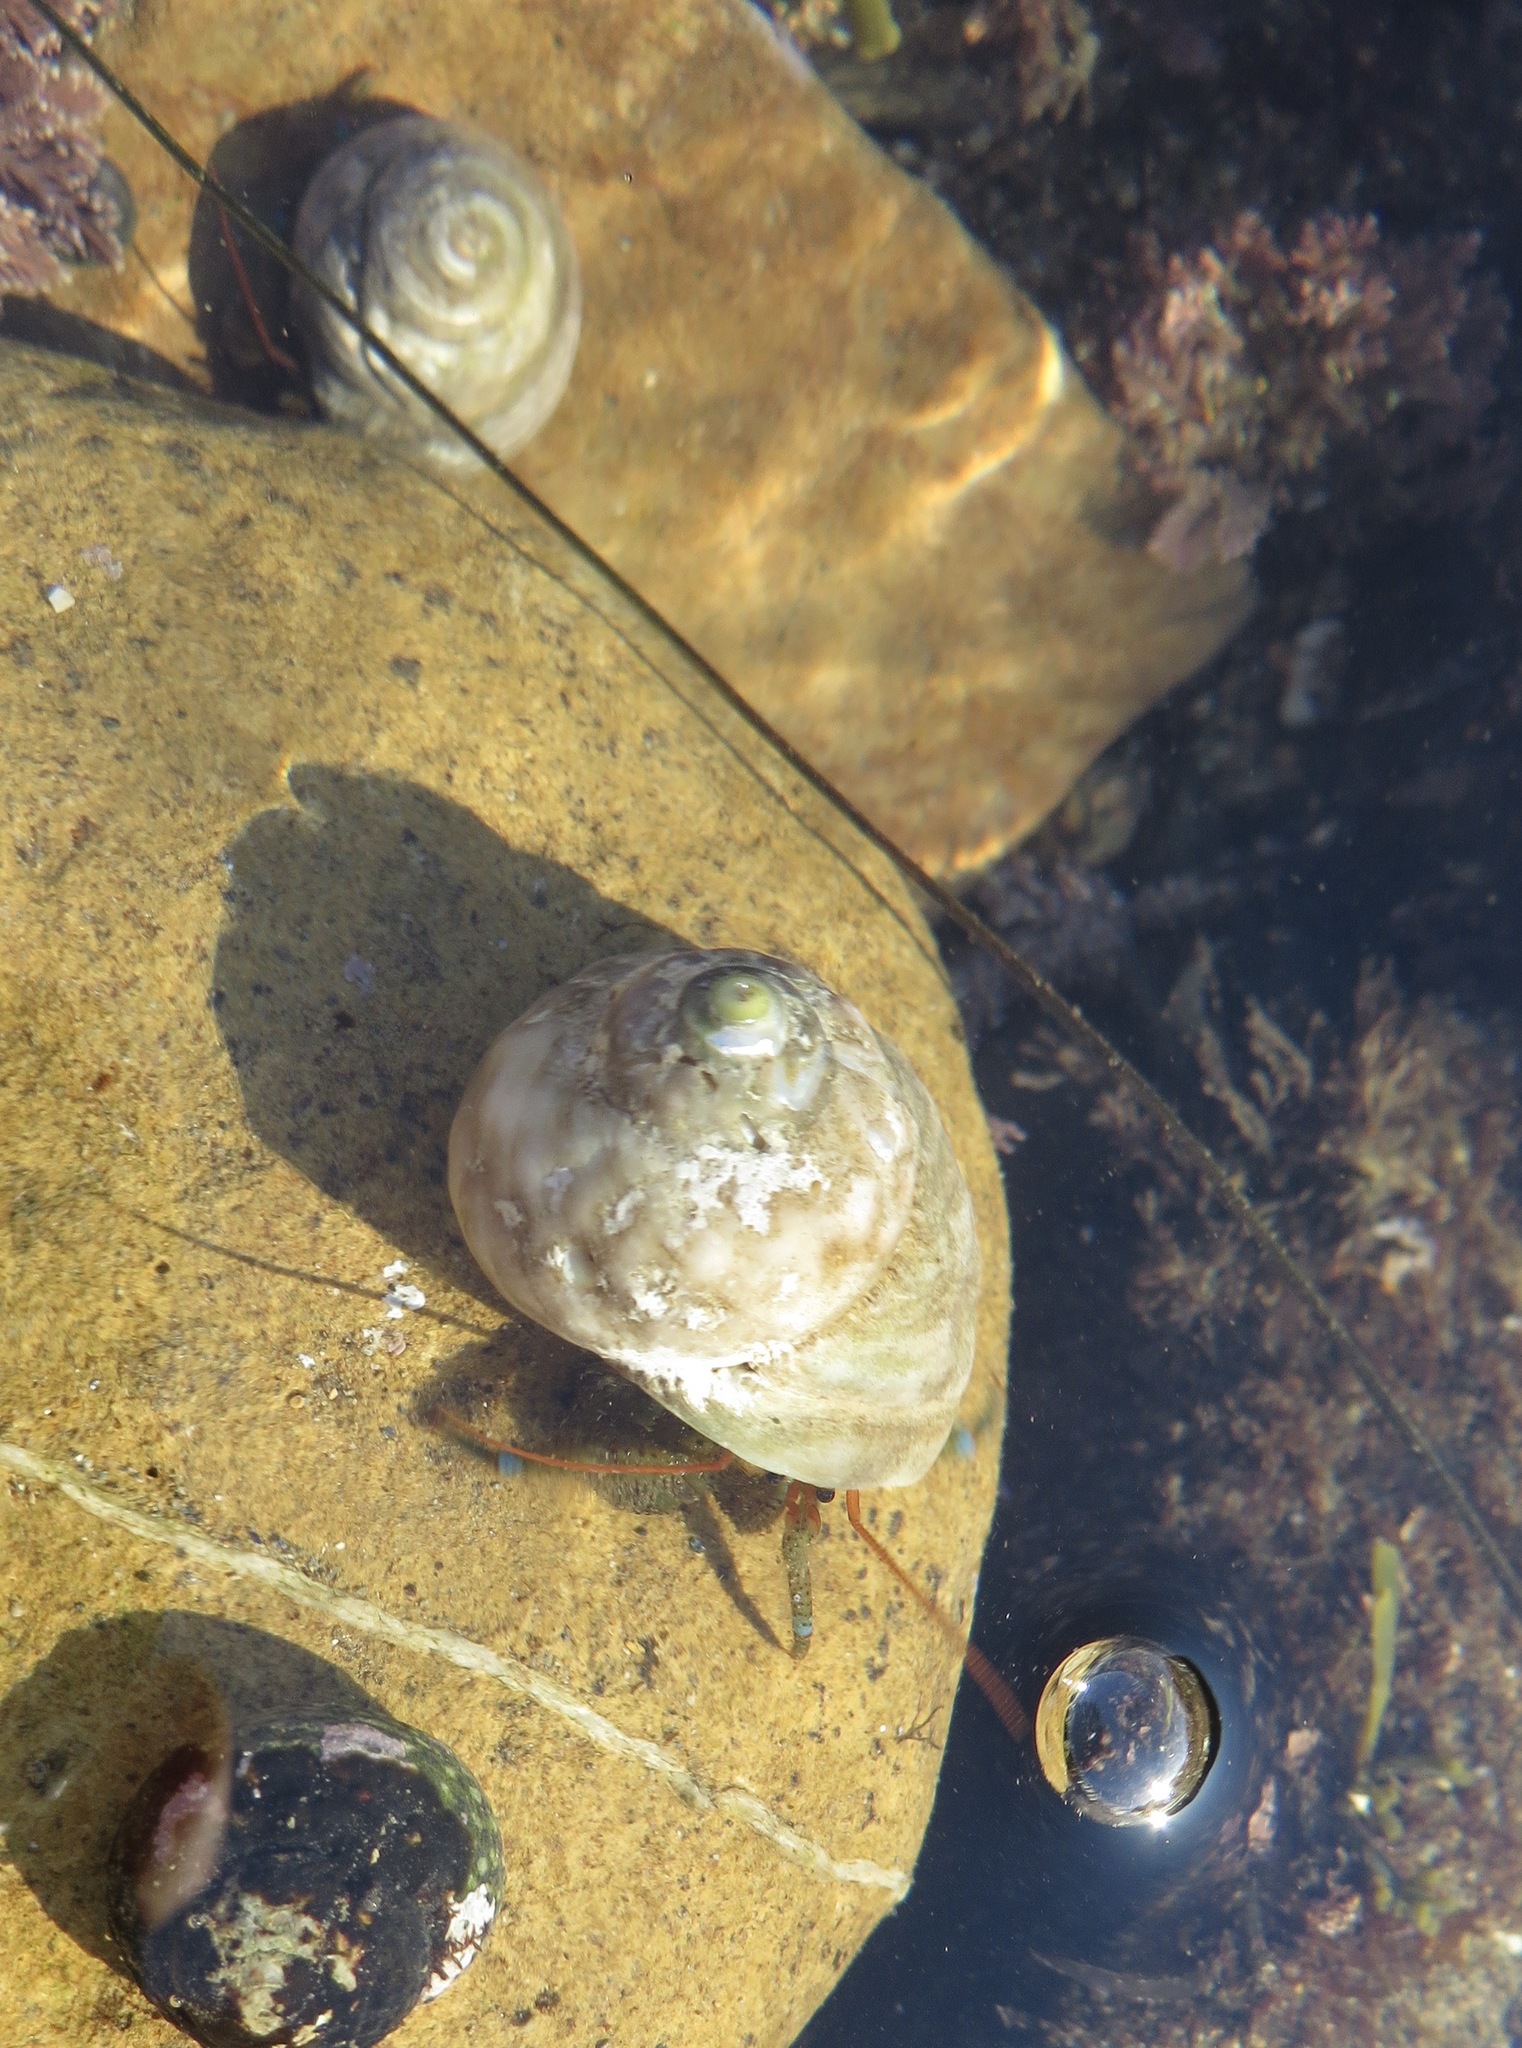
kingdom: Animalia
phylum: Arthropoda
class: Malacostraca
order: Decapoda
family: Paguridae
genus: Pagurus
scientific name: Pagurus samuelis
